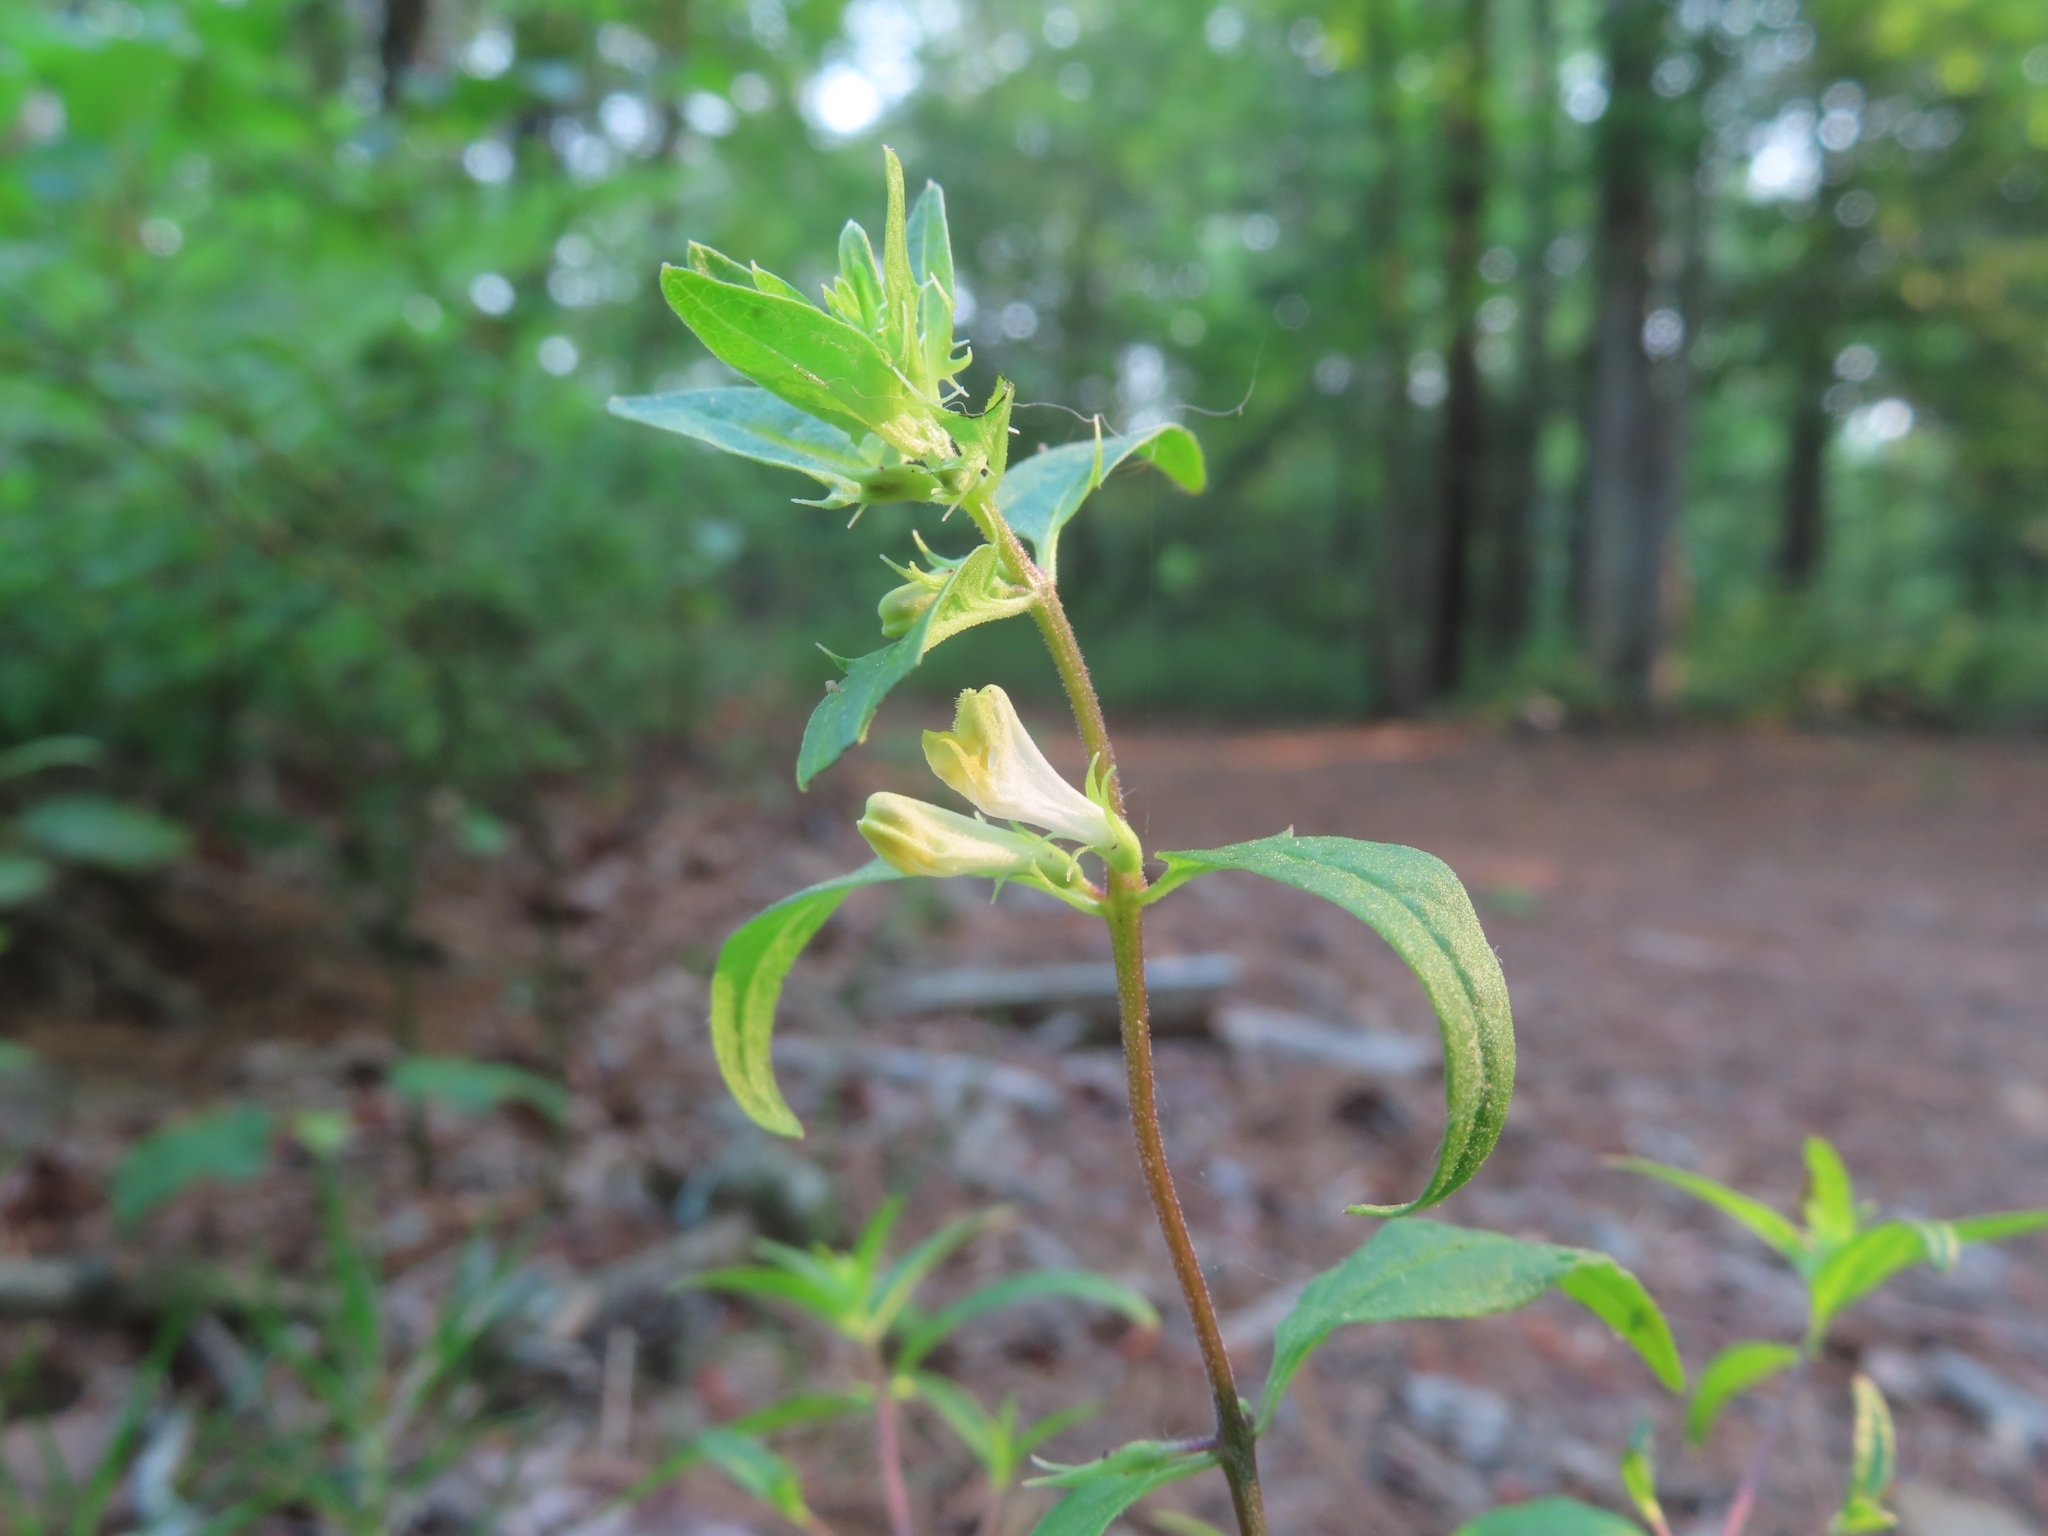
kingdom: Plantae
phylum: Tracheophyta
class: Magnoliopsida
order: Lamiales
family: Orobanchaceae
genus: Melampyrum
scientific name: Melampyrum lineare
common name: American cow-wheat
